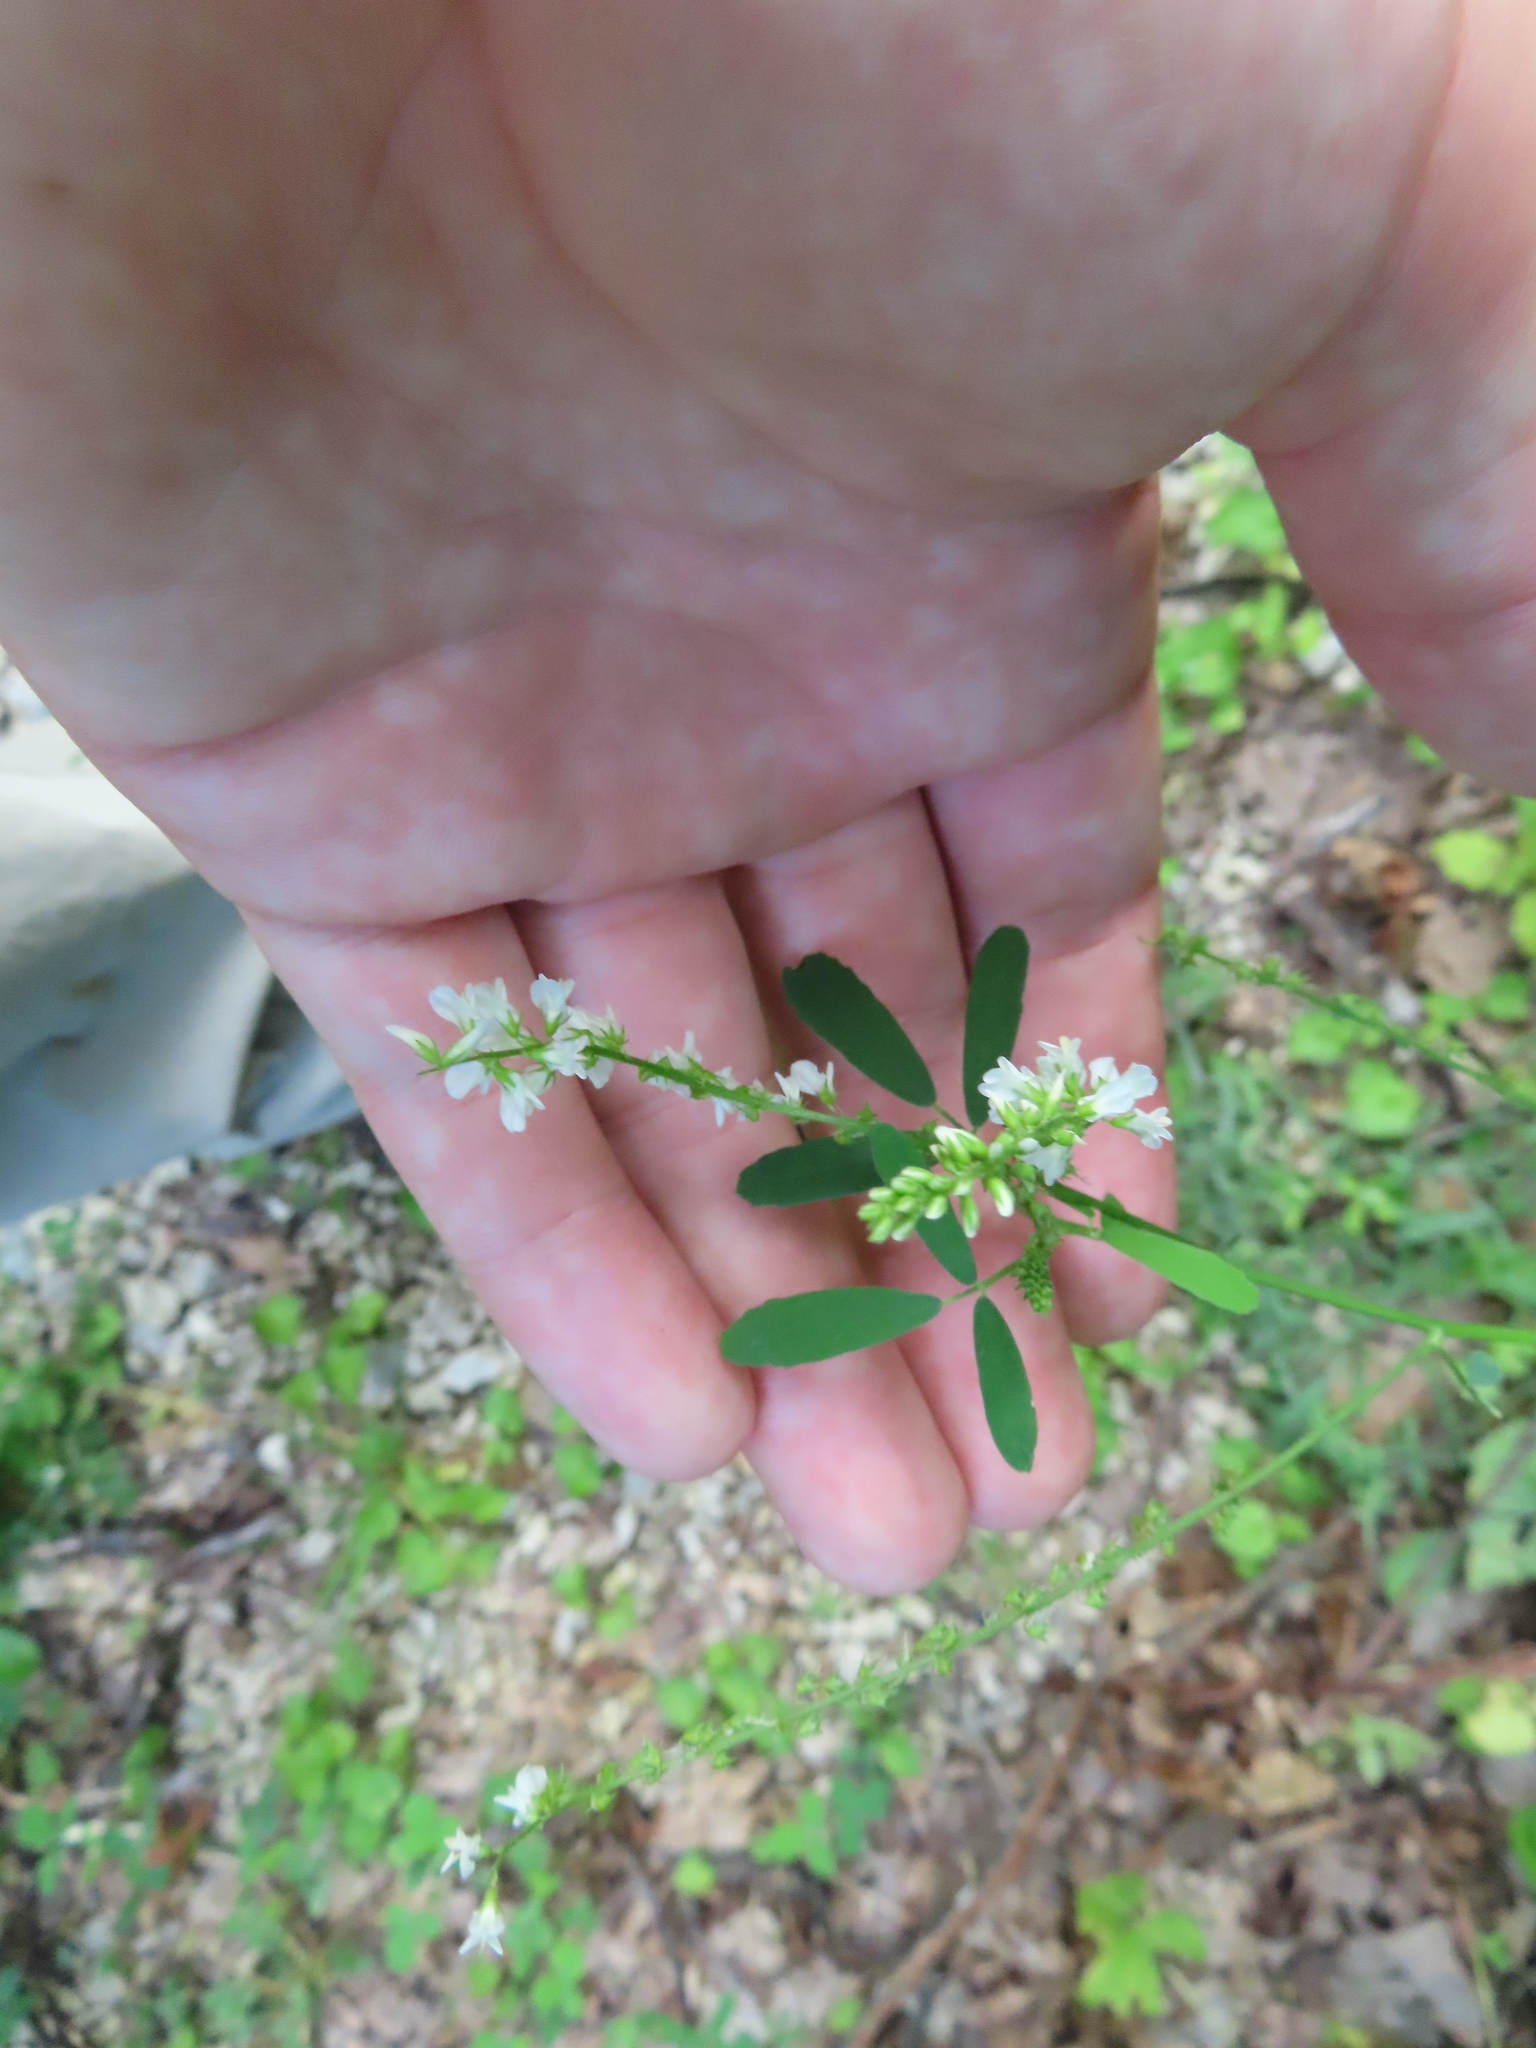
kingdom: Plantae
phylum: Tracheophyta
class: Magnoliopsida
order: Fabales
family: Fabaceae
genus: Melilotus
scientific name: Melilotus albus
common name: White melilot
